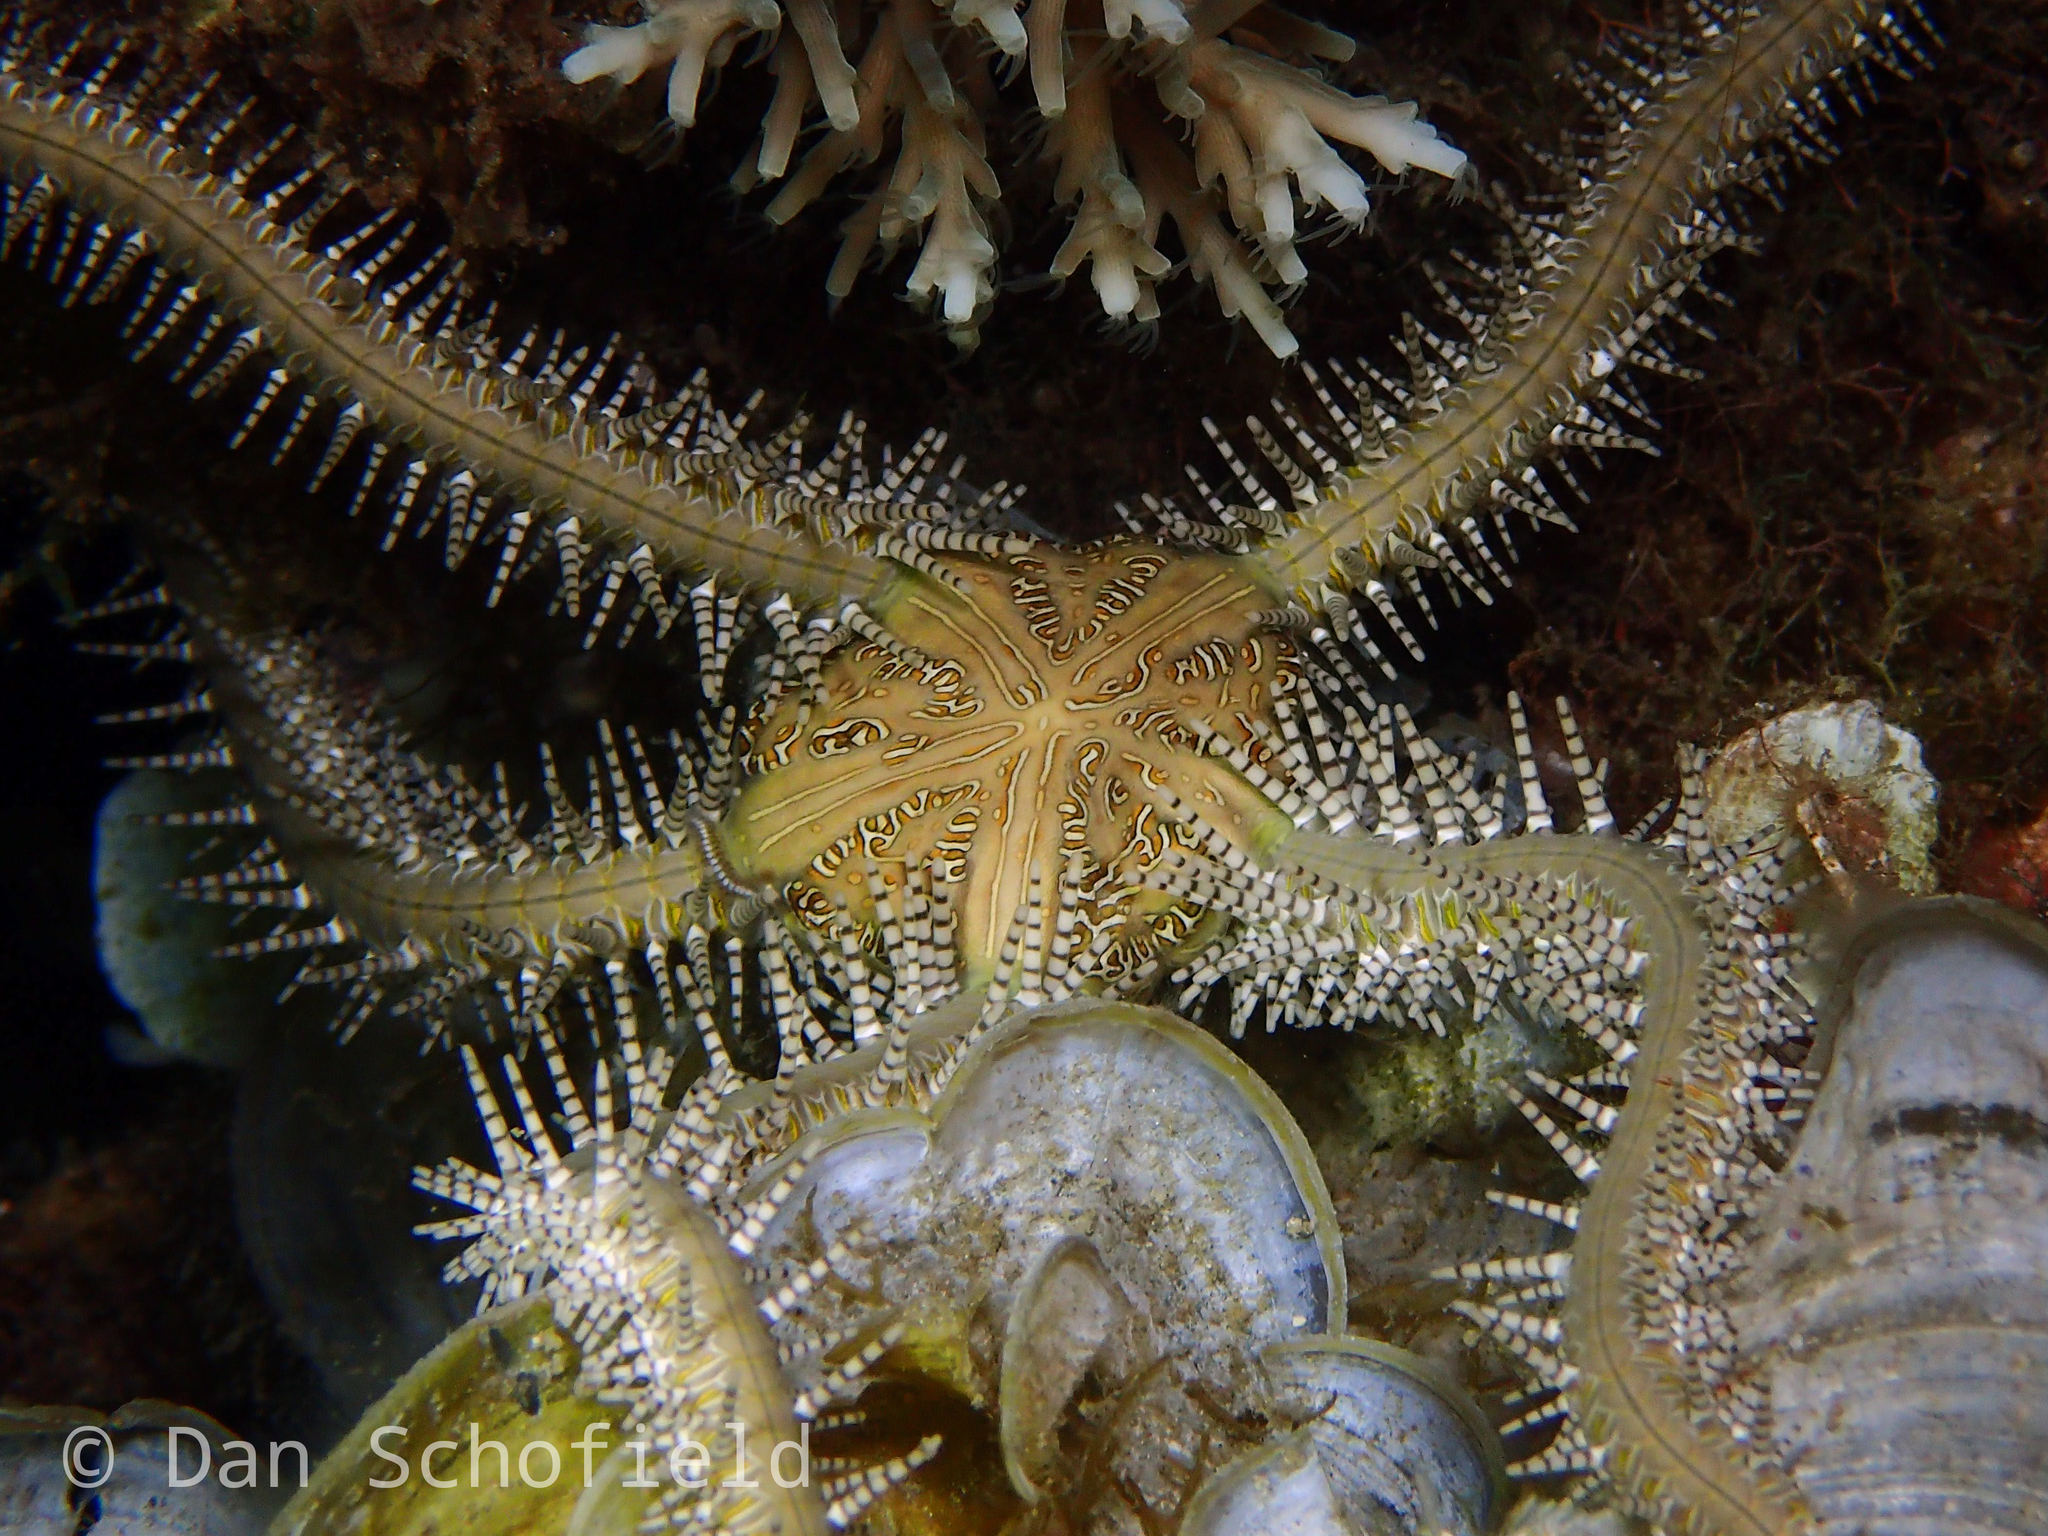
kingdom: Animalia
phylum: Echinodermata
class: Ophiuroidea
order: Ophiacanthida
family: Ophiocomidae
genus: Ophiomastix
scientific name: Ophiomastix pictum
